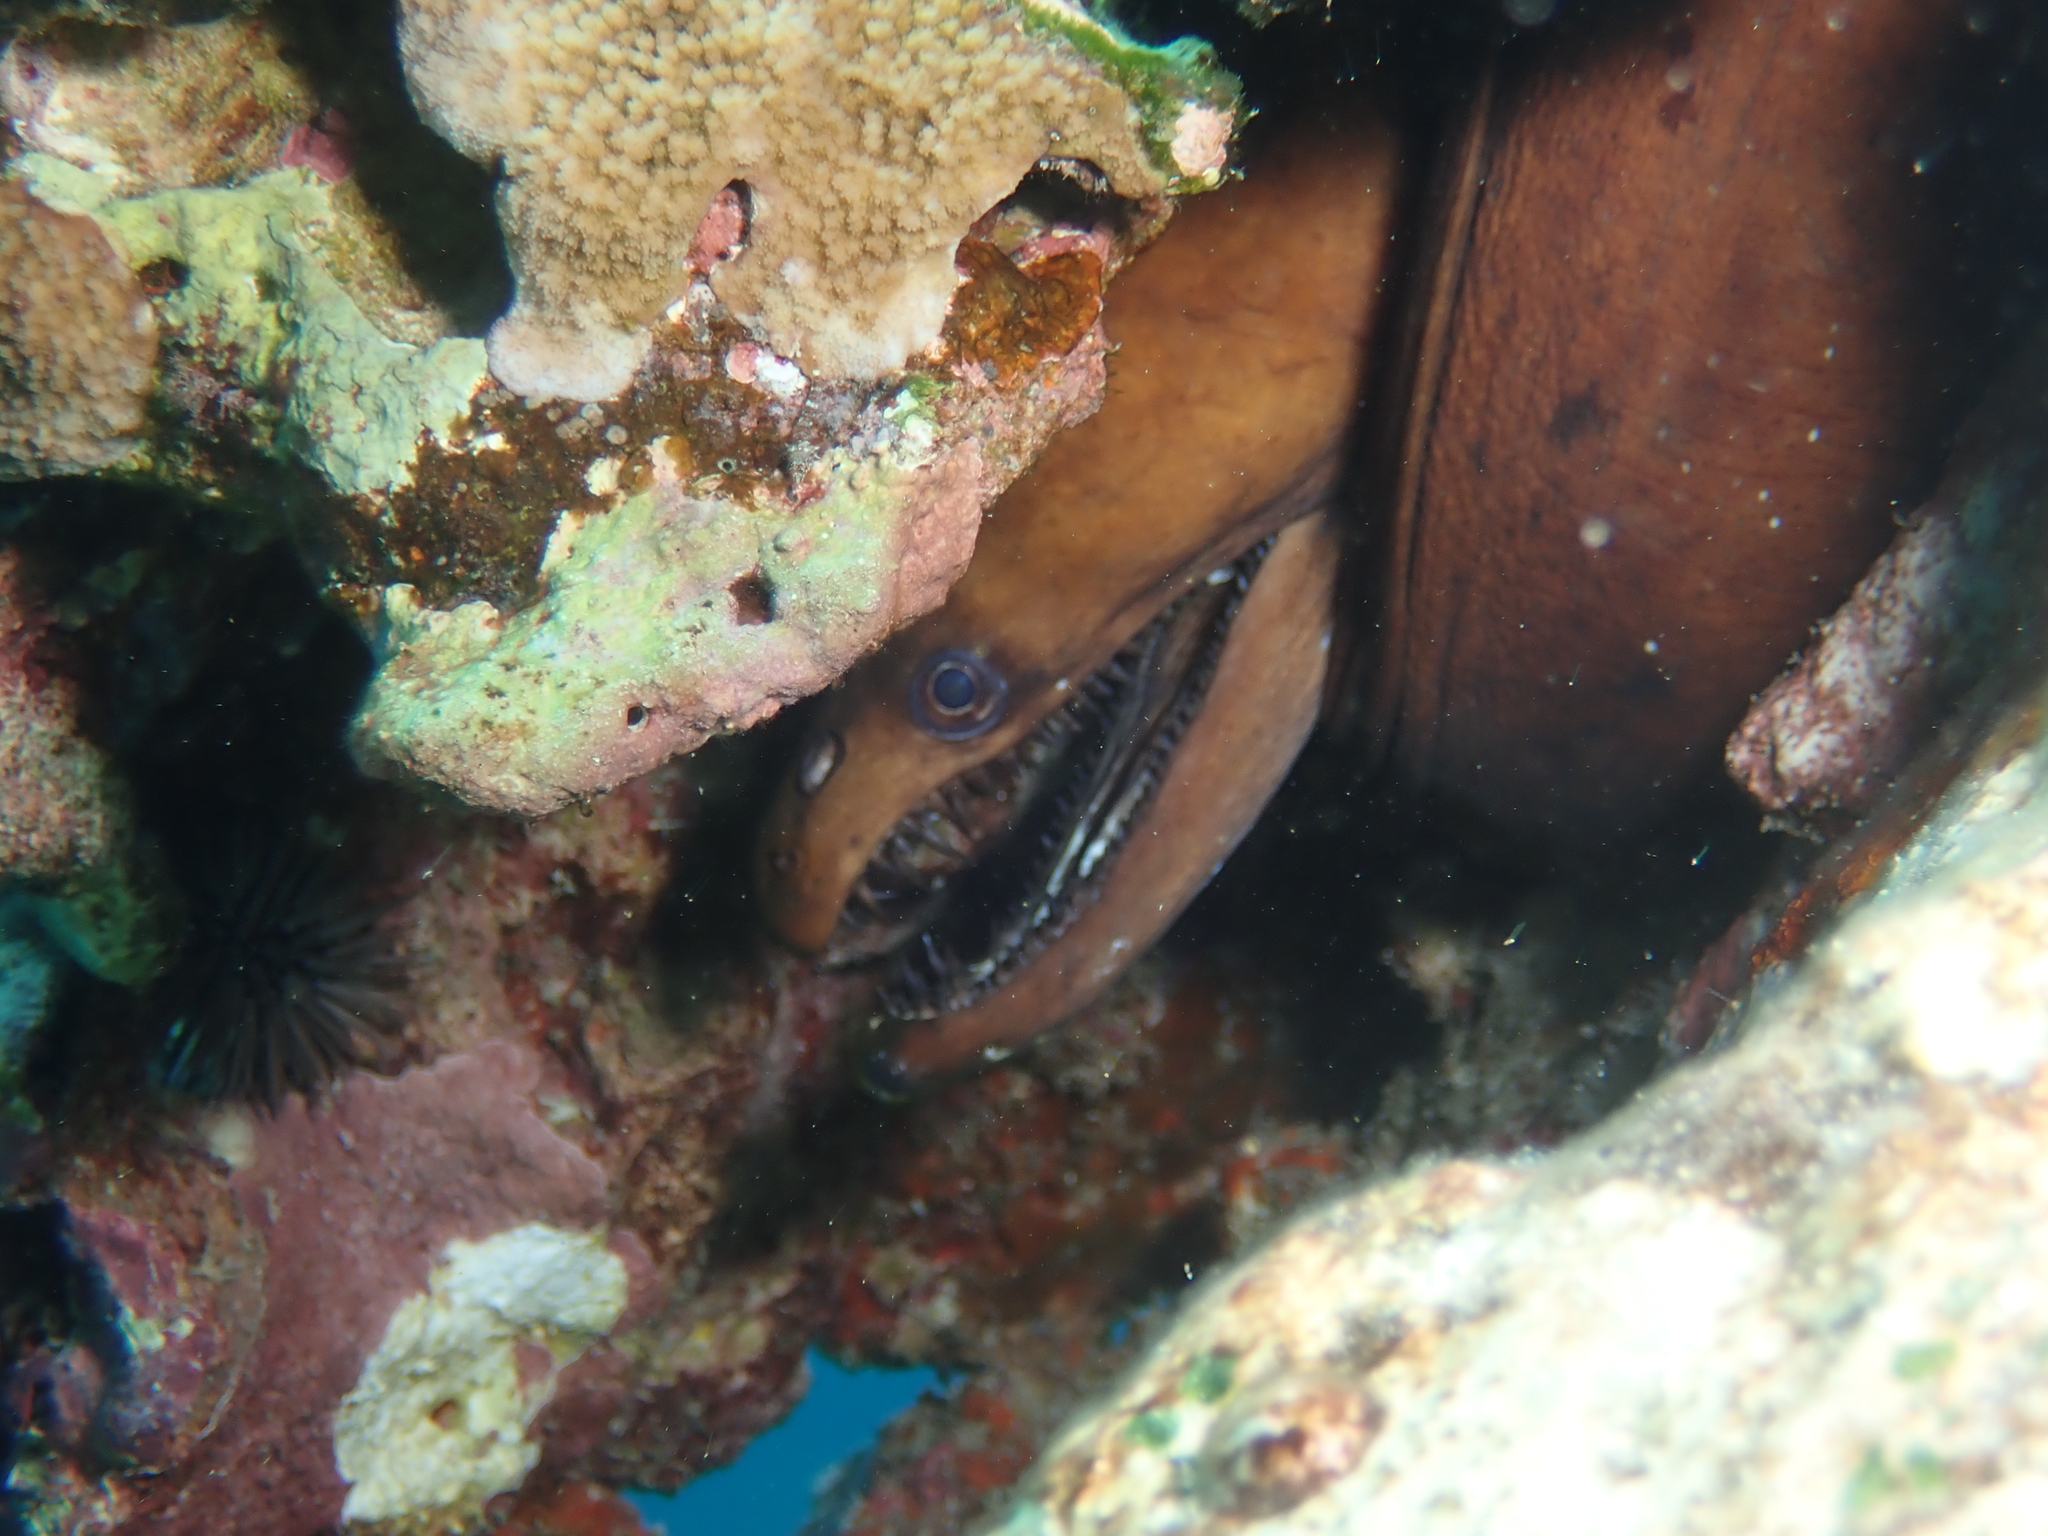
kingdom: Animalia
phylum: Chordata
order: Anguilliformes
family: Muraenidae
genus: Enchelynassa
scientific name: Enchelynassa canina
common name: Viper moray
